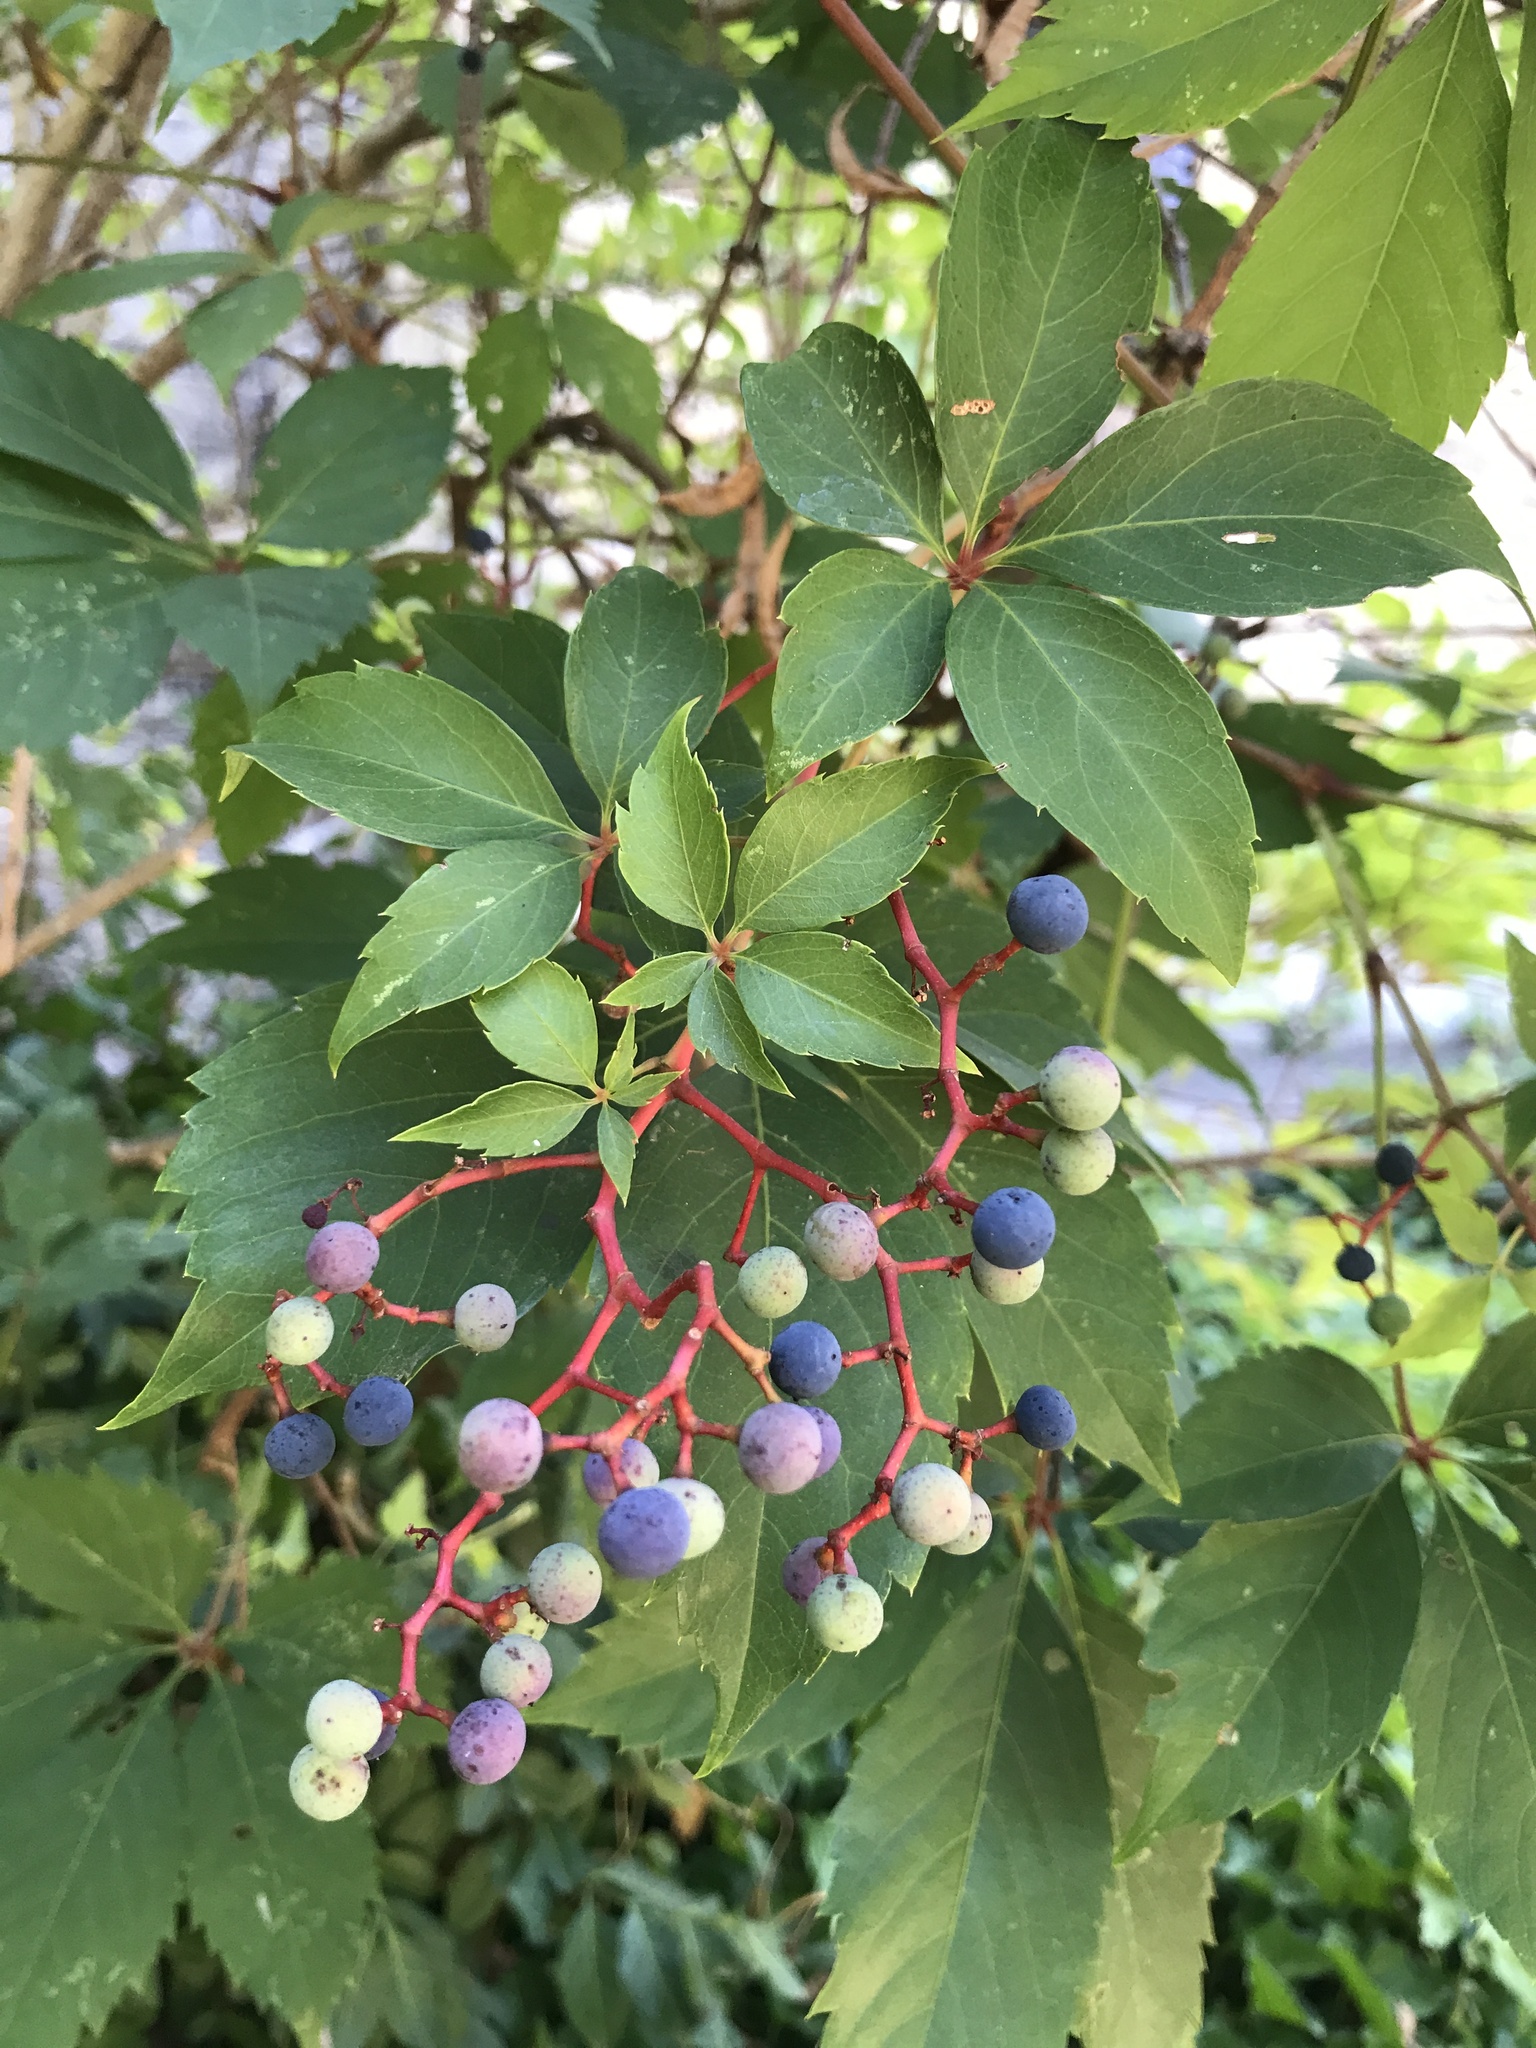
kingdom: Plantae
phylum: Tracheophyta
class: Magnoliopsida
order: Vitales
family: Vitaceae
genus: Parthenocissus
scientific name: Parthenocissus quinquefolia
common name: Virginia-creeper
